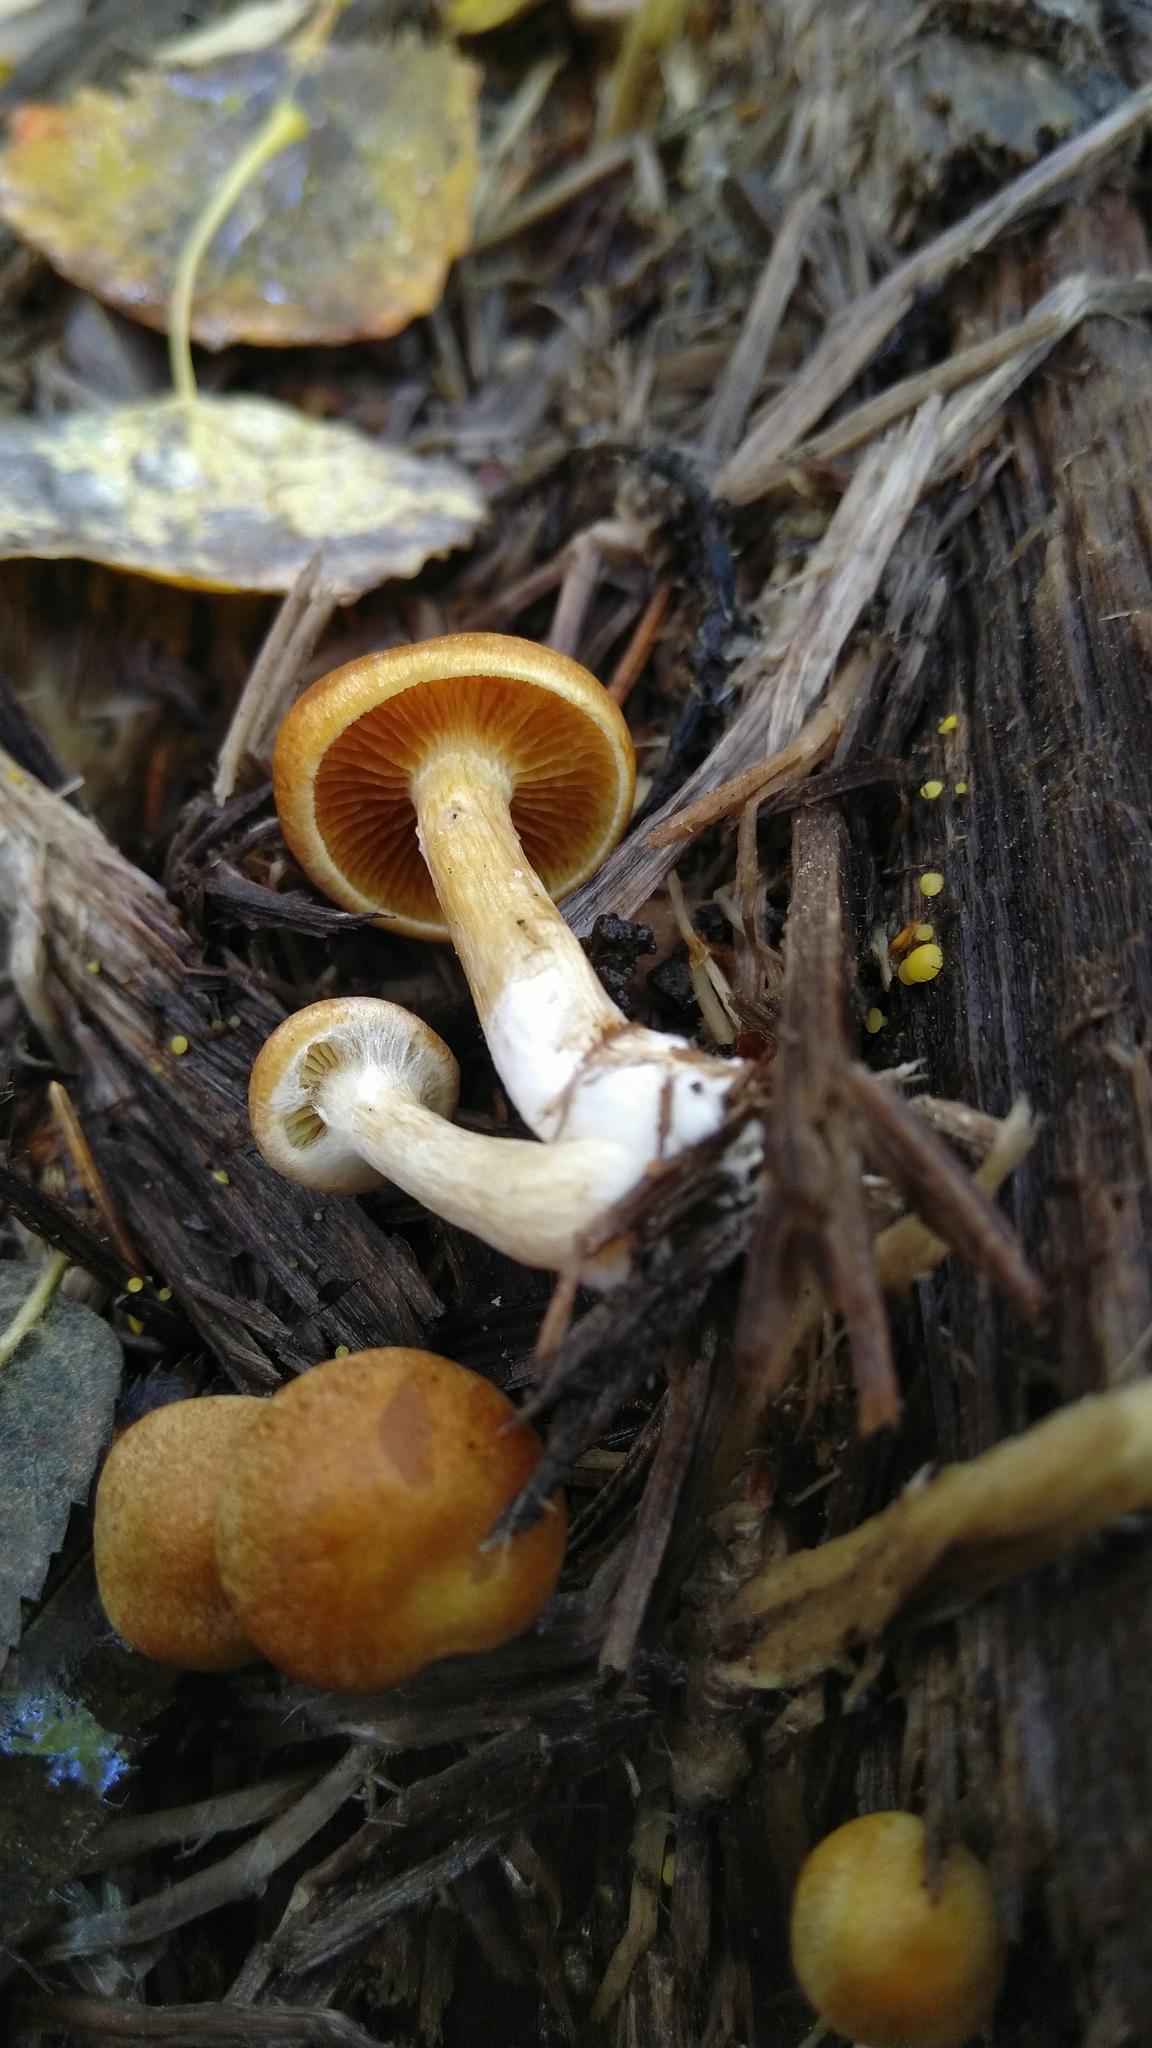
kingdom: Fungi
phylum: Basidiomycota
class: Agaricomycetes
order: Agaricales
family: Hymenogastraceae
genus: Gymnopilus
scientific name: Gymnopilus penetrans
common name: Common rustgill
